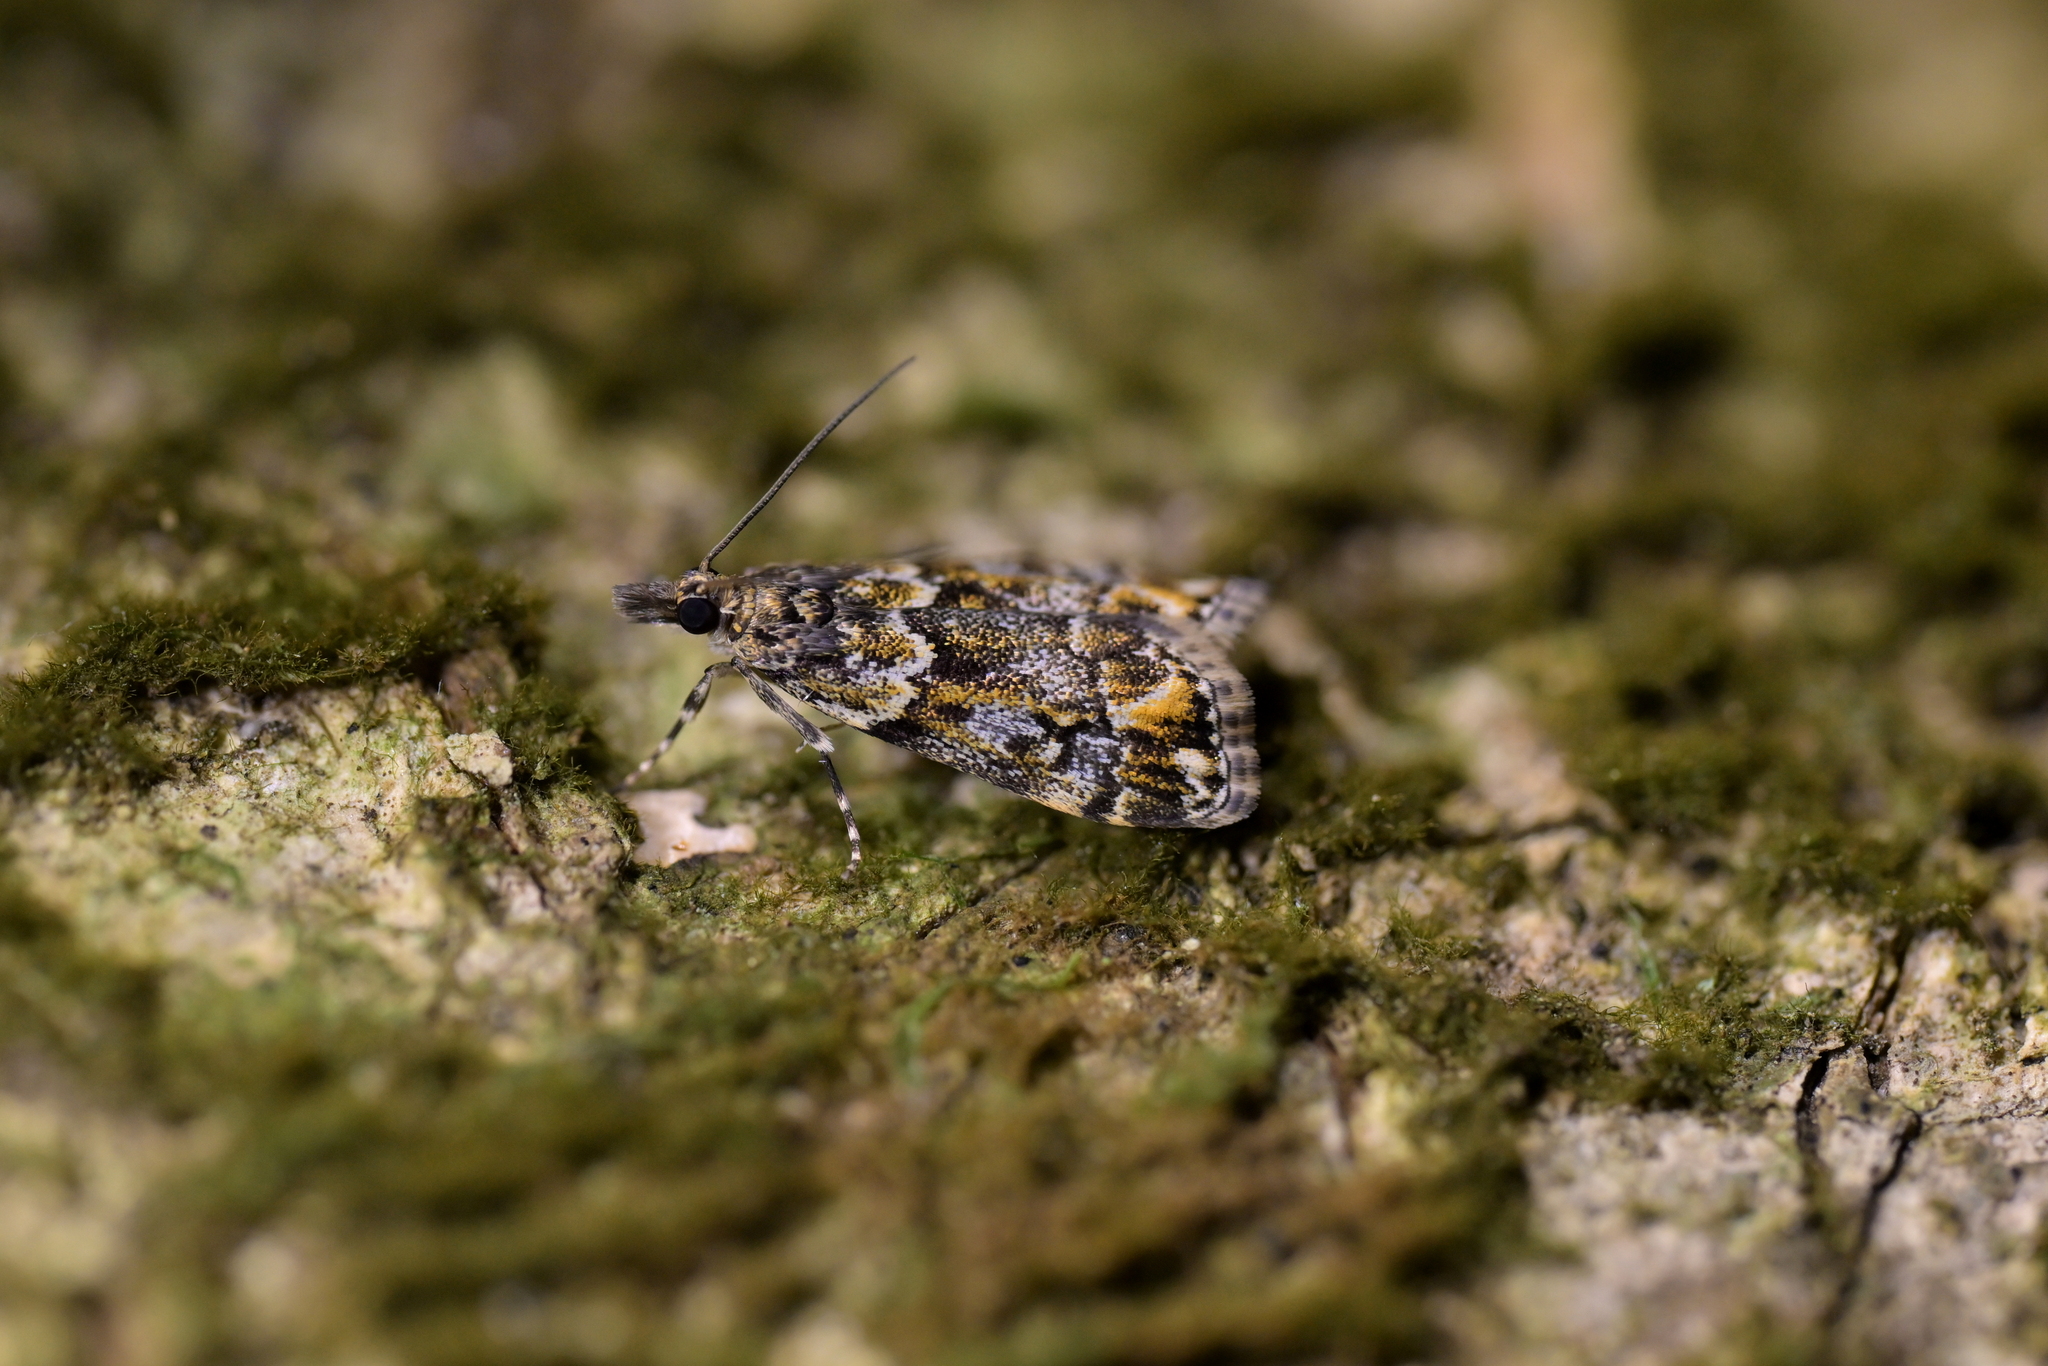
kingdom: Animalia
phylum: Arthropoda
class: Insecta
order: Lepidoptera
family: Crambidae
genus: Eudonia
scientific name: Eudonia minualis
